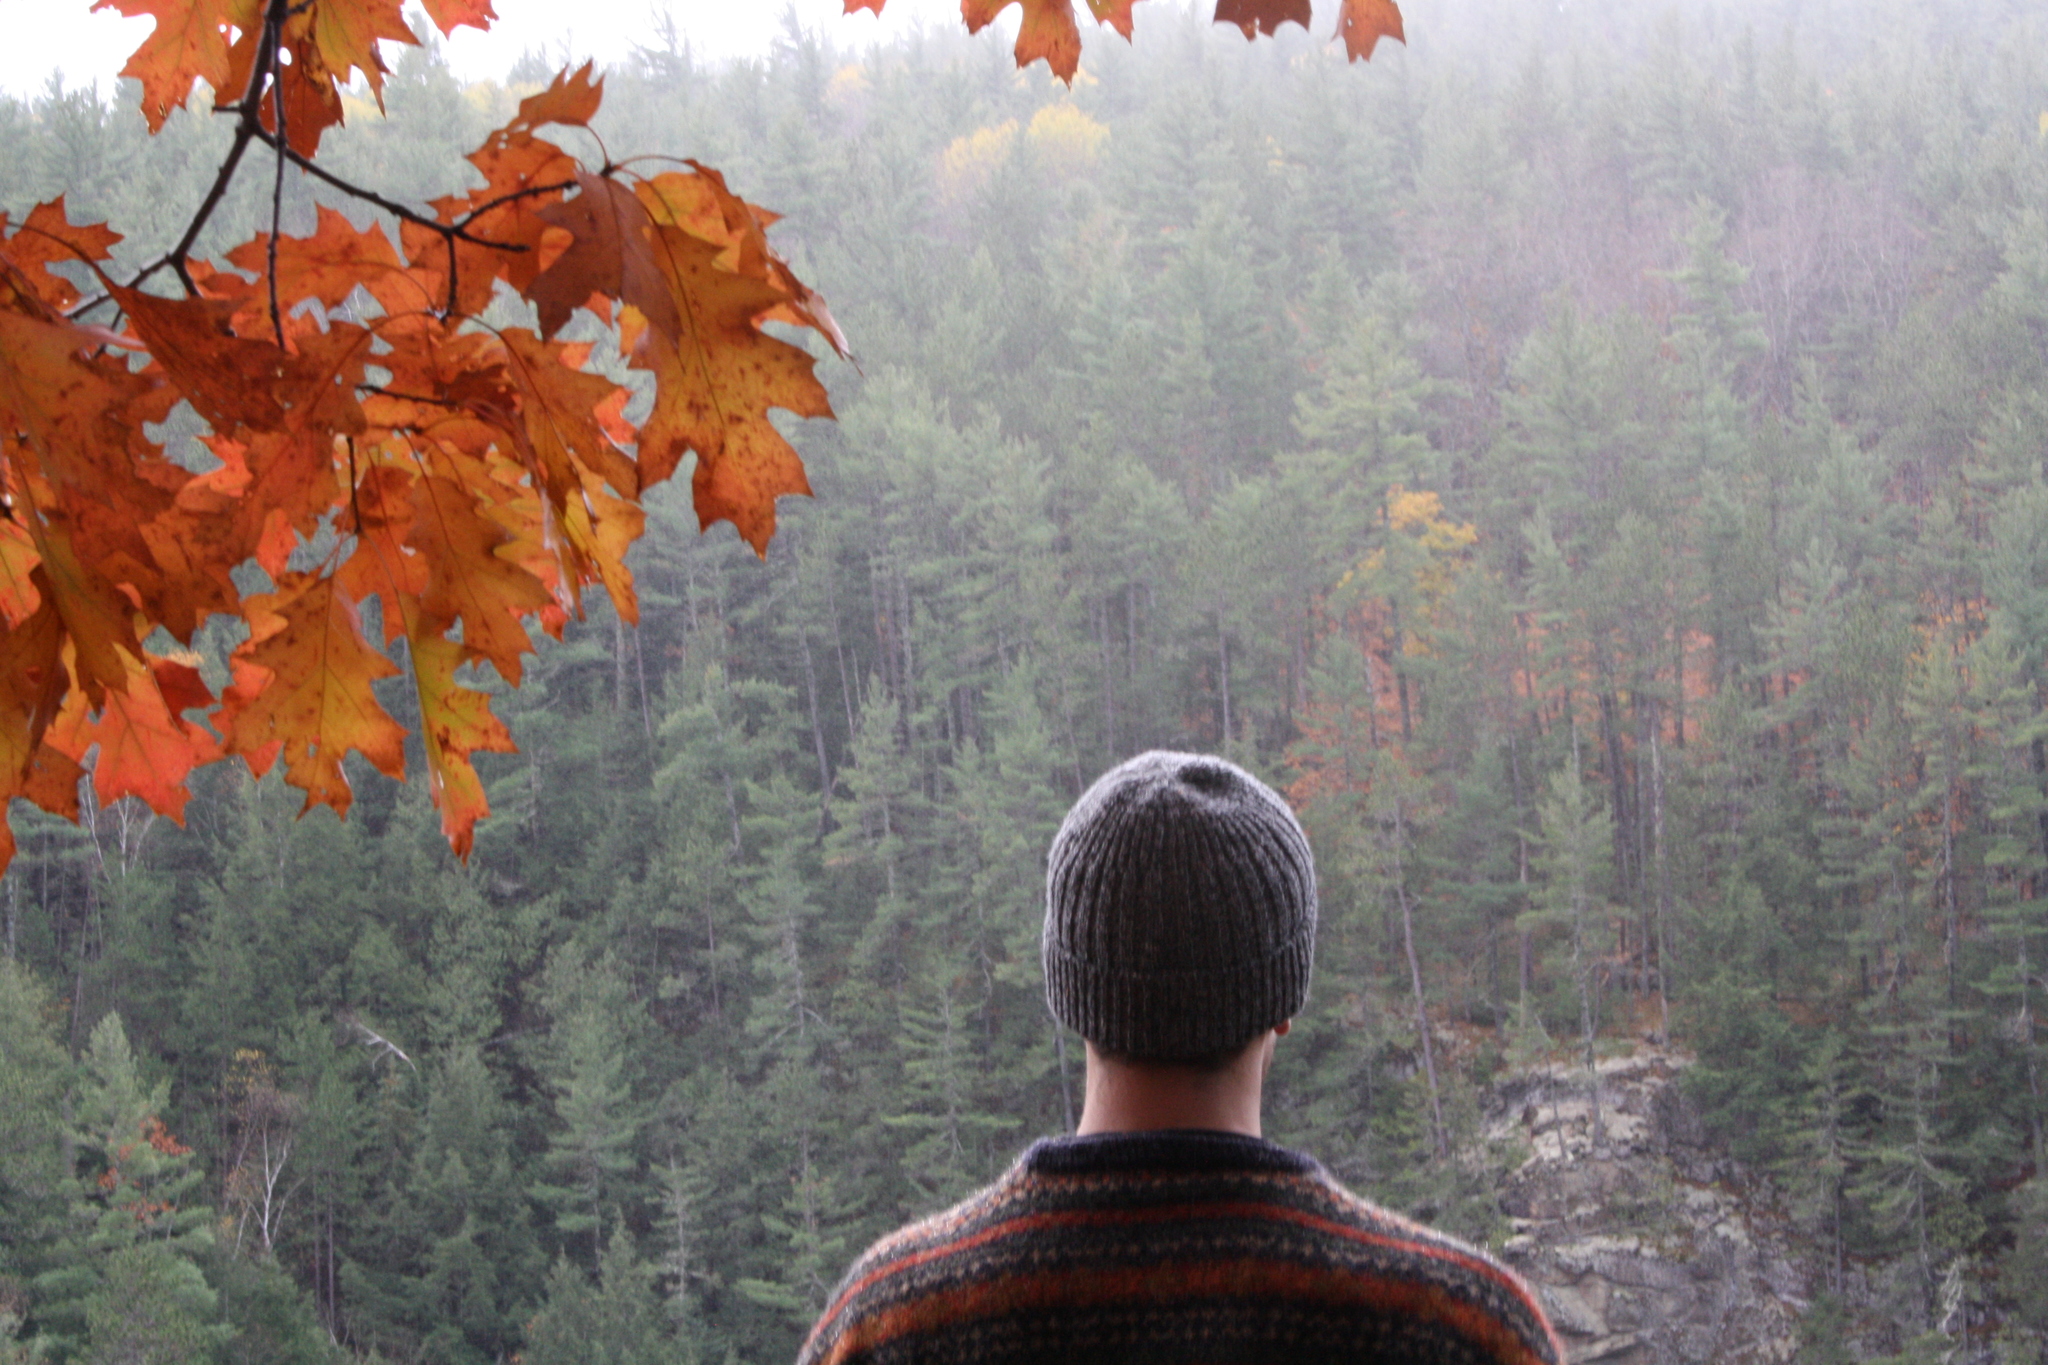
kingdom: Plantae
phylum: Tracheophyta
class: Magnoliopsida
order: Fagales
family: Fagaceae
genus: Quercus
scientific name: Quercus rubra
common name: Red oak
